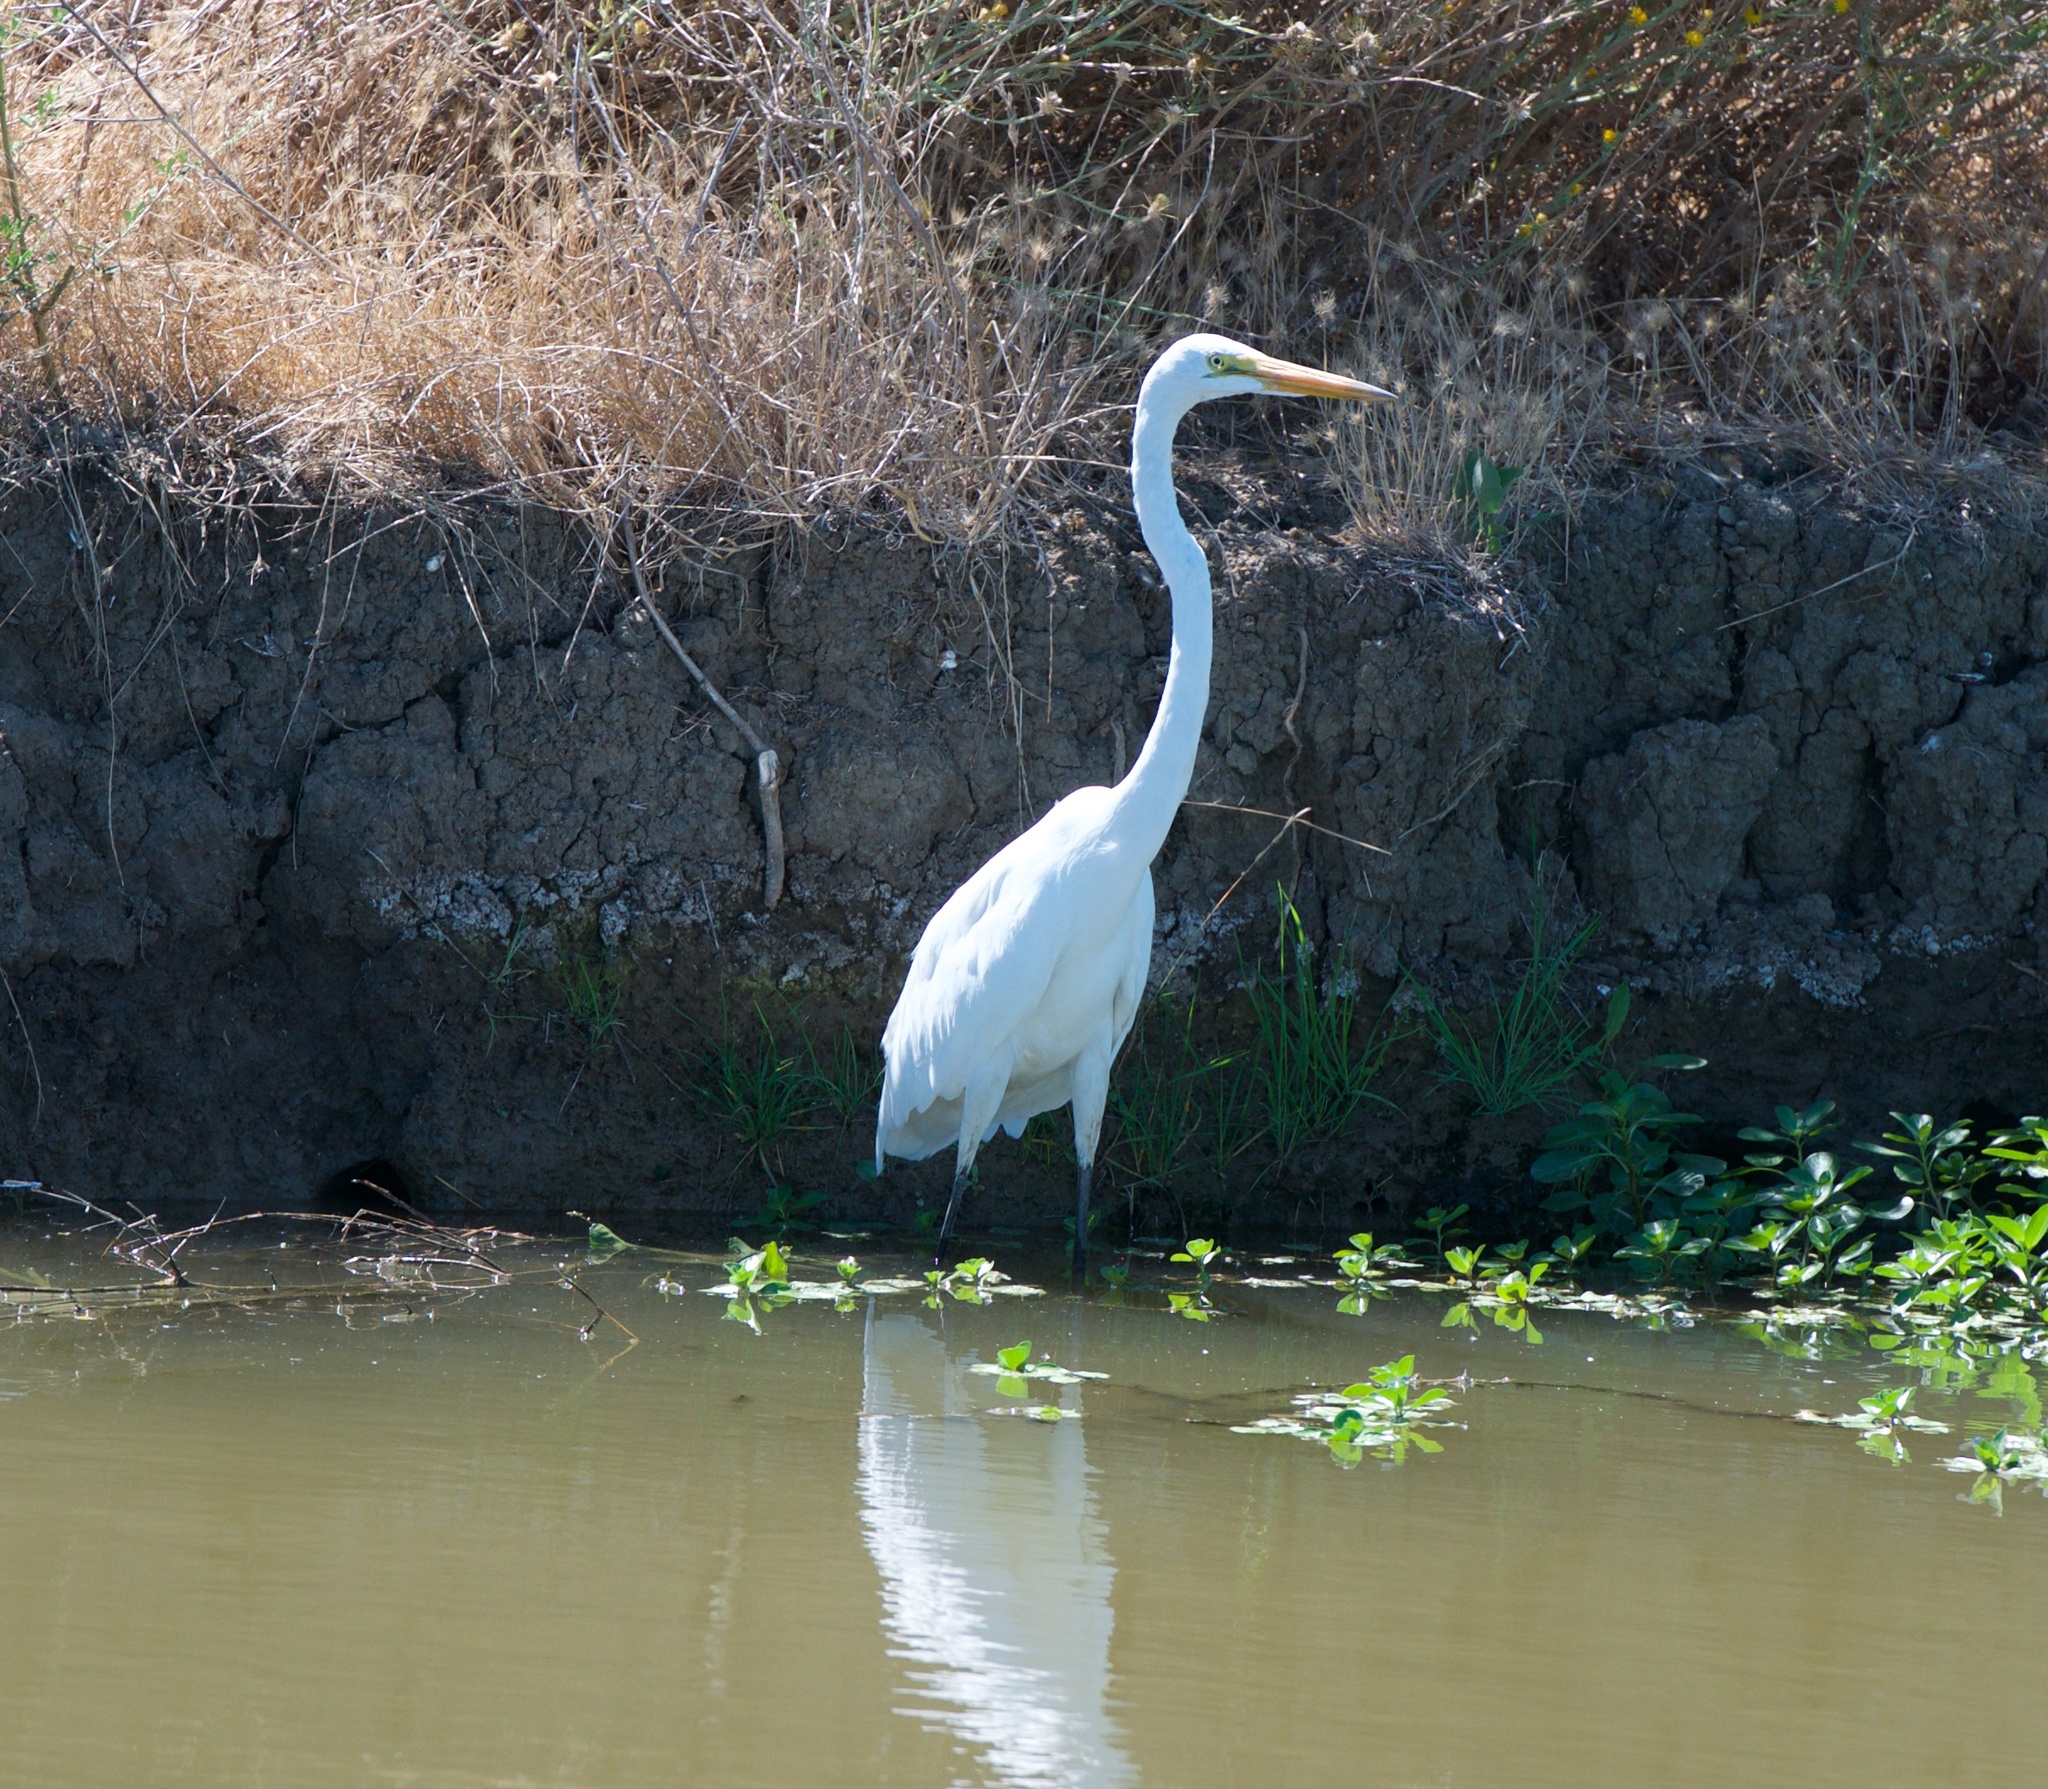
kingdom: Animalia
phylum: Chordata
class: Aves
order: Pelecaniformes
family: Ardeidae
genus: Ardea
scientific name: Ardea alba
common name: Great egret
